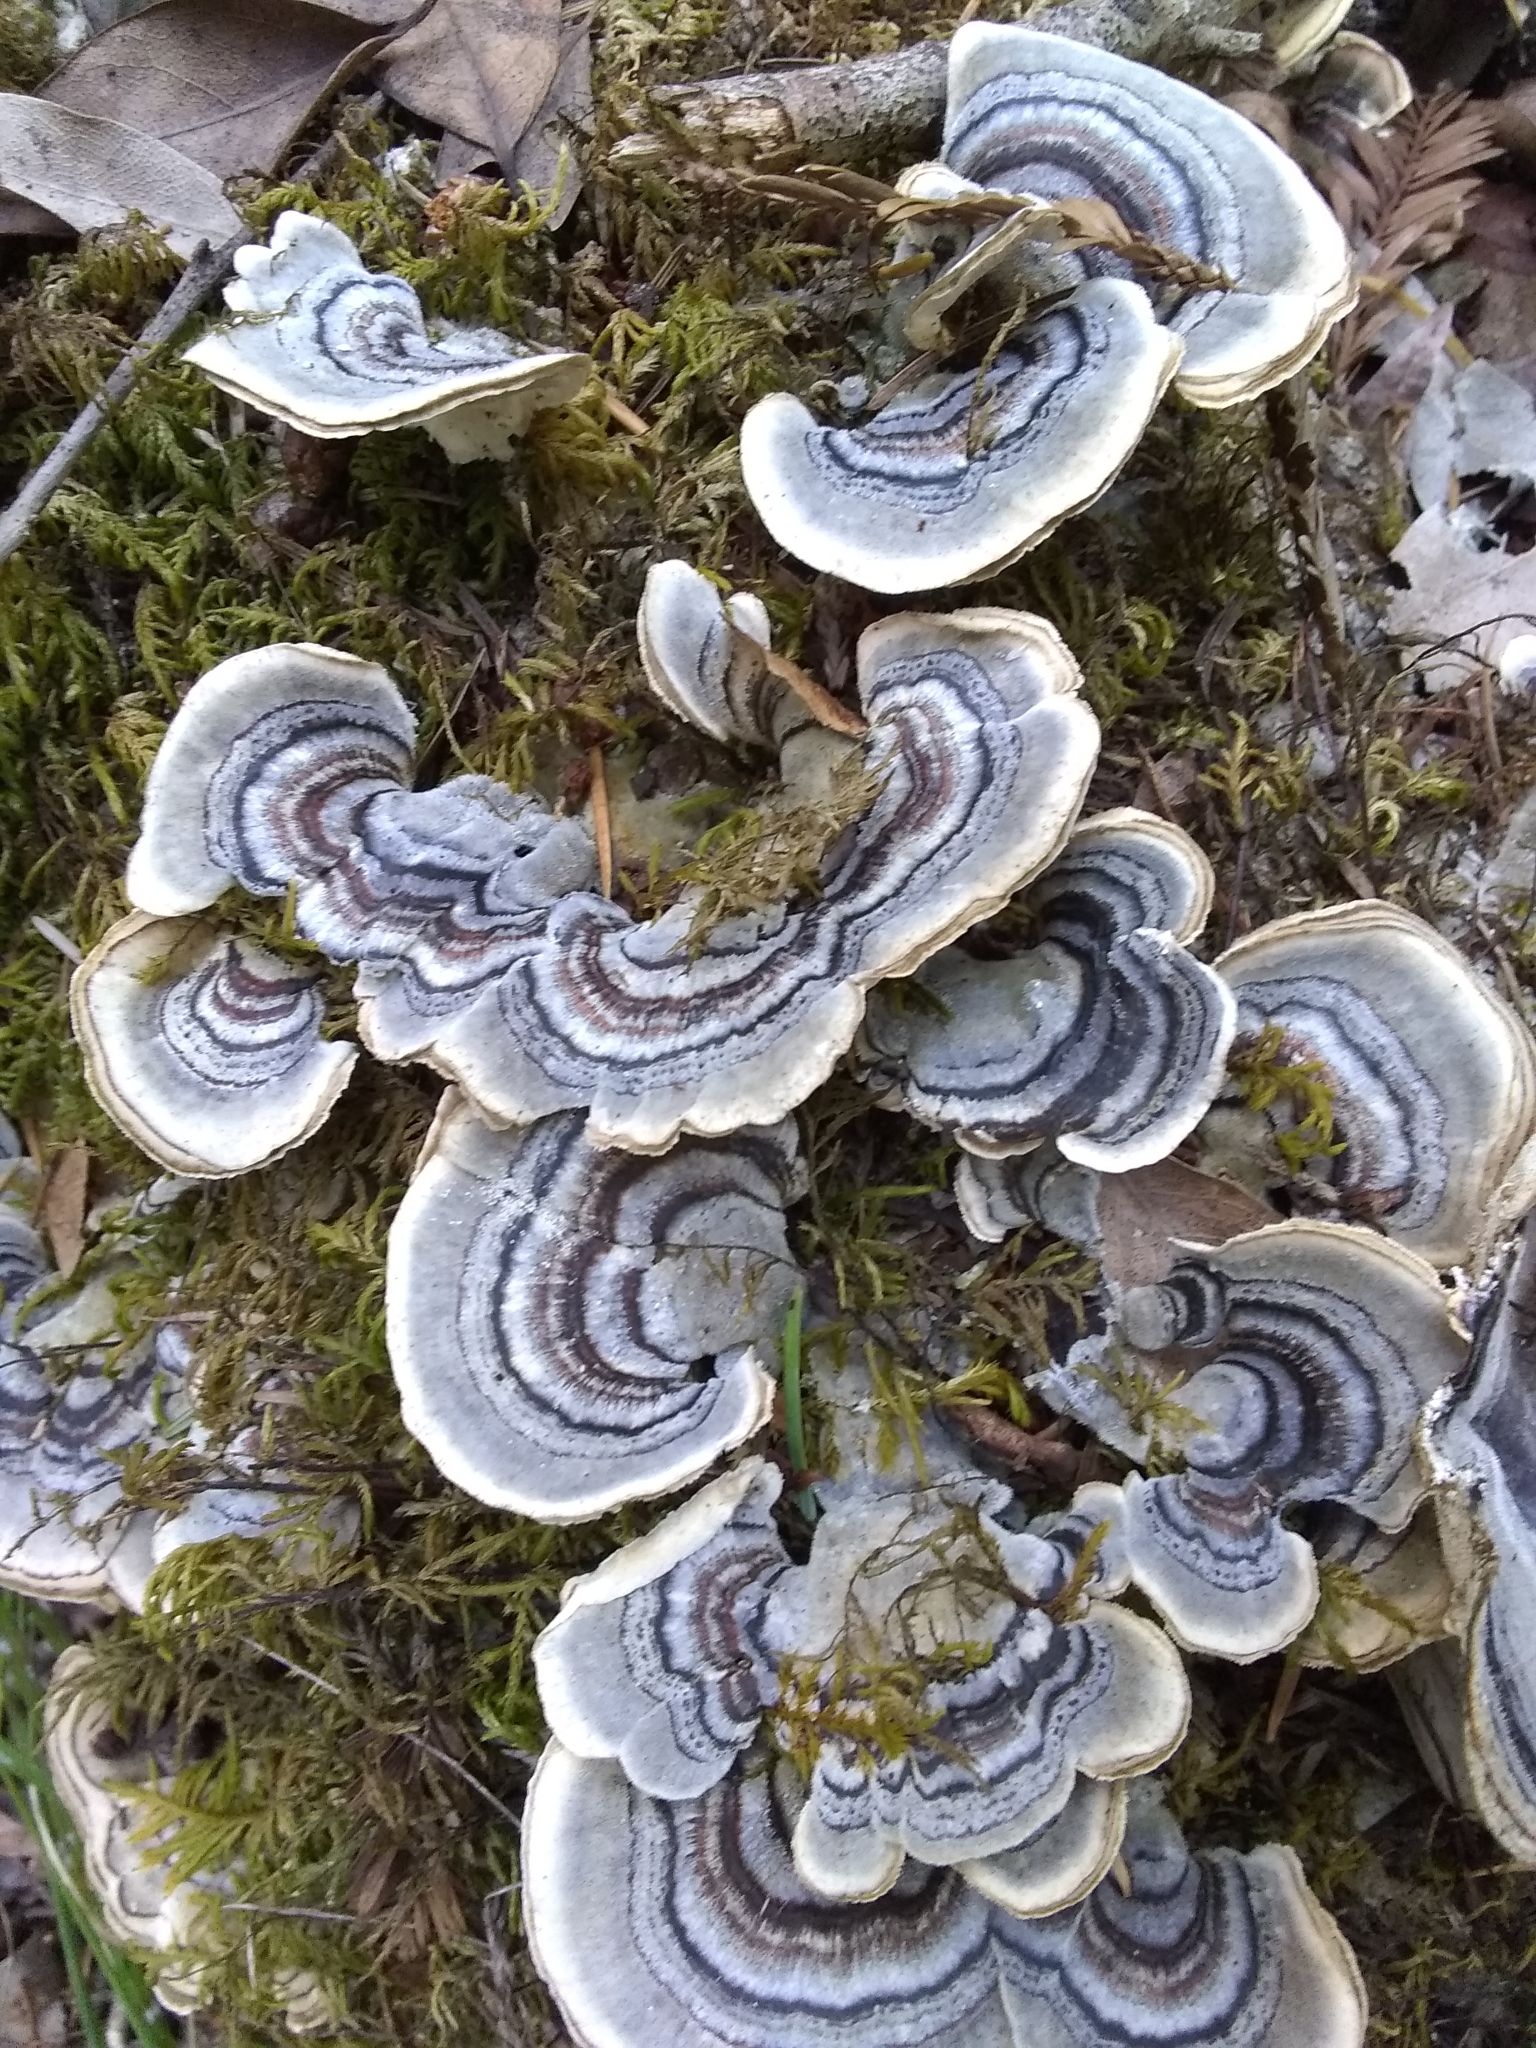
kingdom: Fungi
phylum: Basidiomycota
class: Agaricomycetes
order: Polyporales
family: Polyporaceae
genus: Trametes
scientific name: Trametes versicolor
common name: Turkeytail
